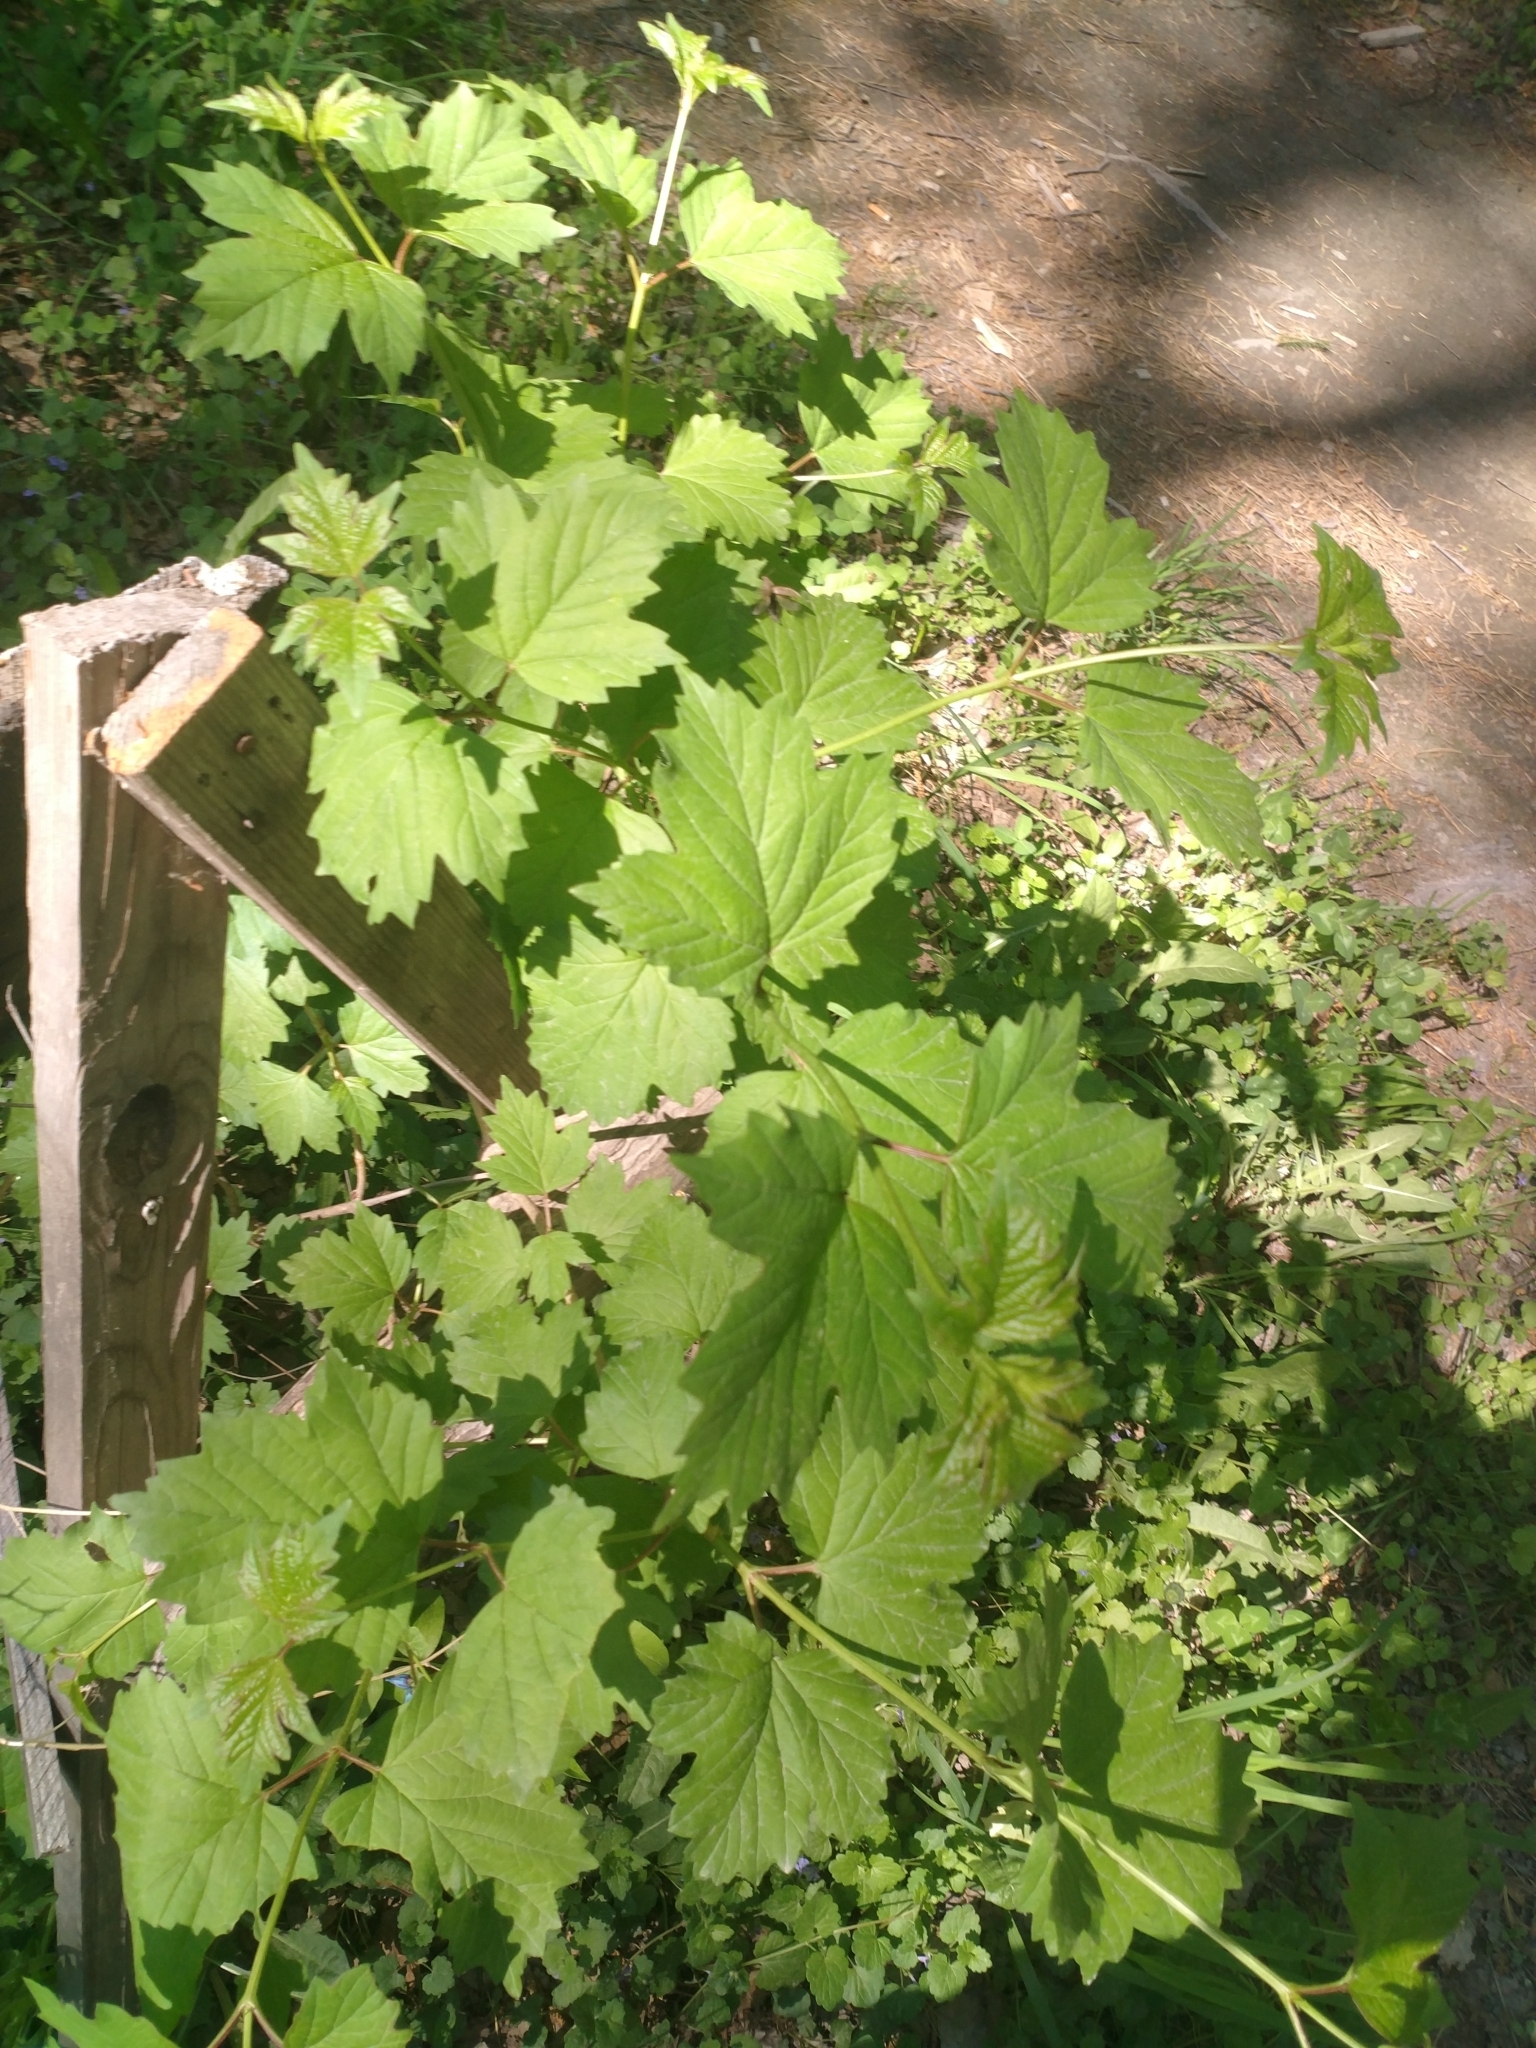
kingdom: Plantae
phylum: Tracheophyta
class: Magnoliopsida
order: Dipsacales
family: Viburnaceae
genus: Viburnum
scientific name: Viburnum opulus
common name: Guelder-rose
